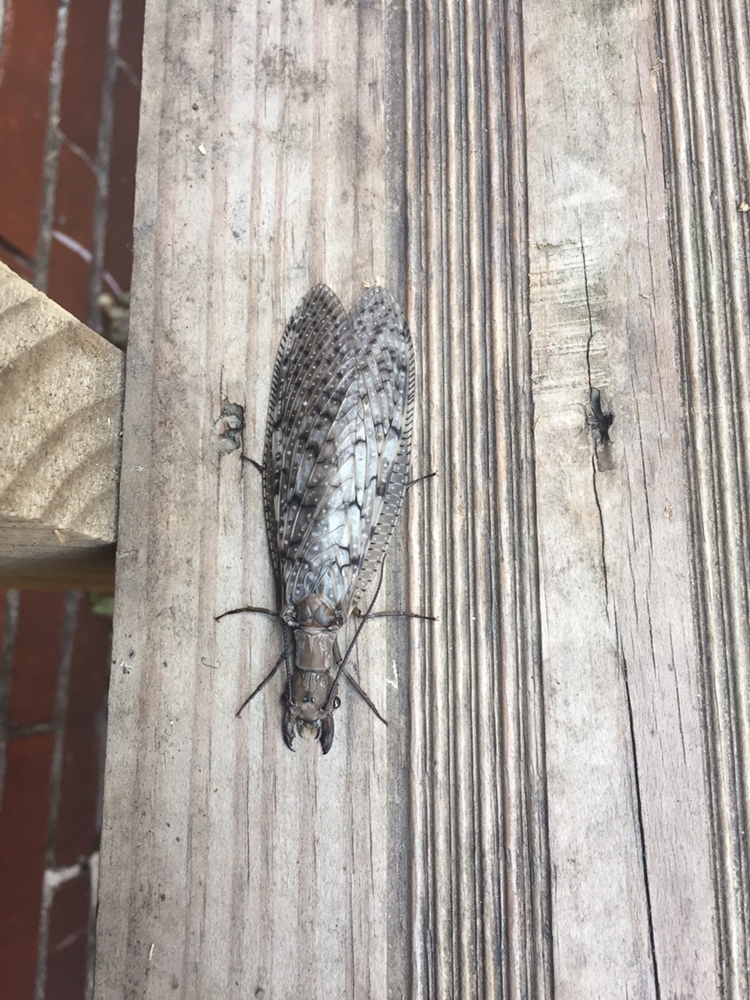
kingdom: Animalia
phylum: Arthropoda
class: Insecta
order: Megaloptera
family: Corydalidae
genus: Corydalus
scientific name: Corydalus cornutus
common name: Dobsonfly
